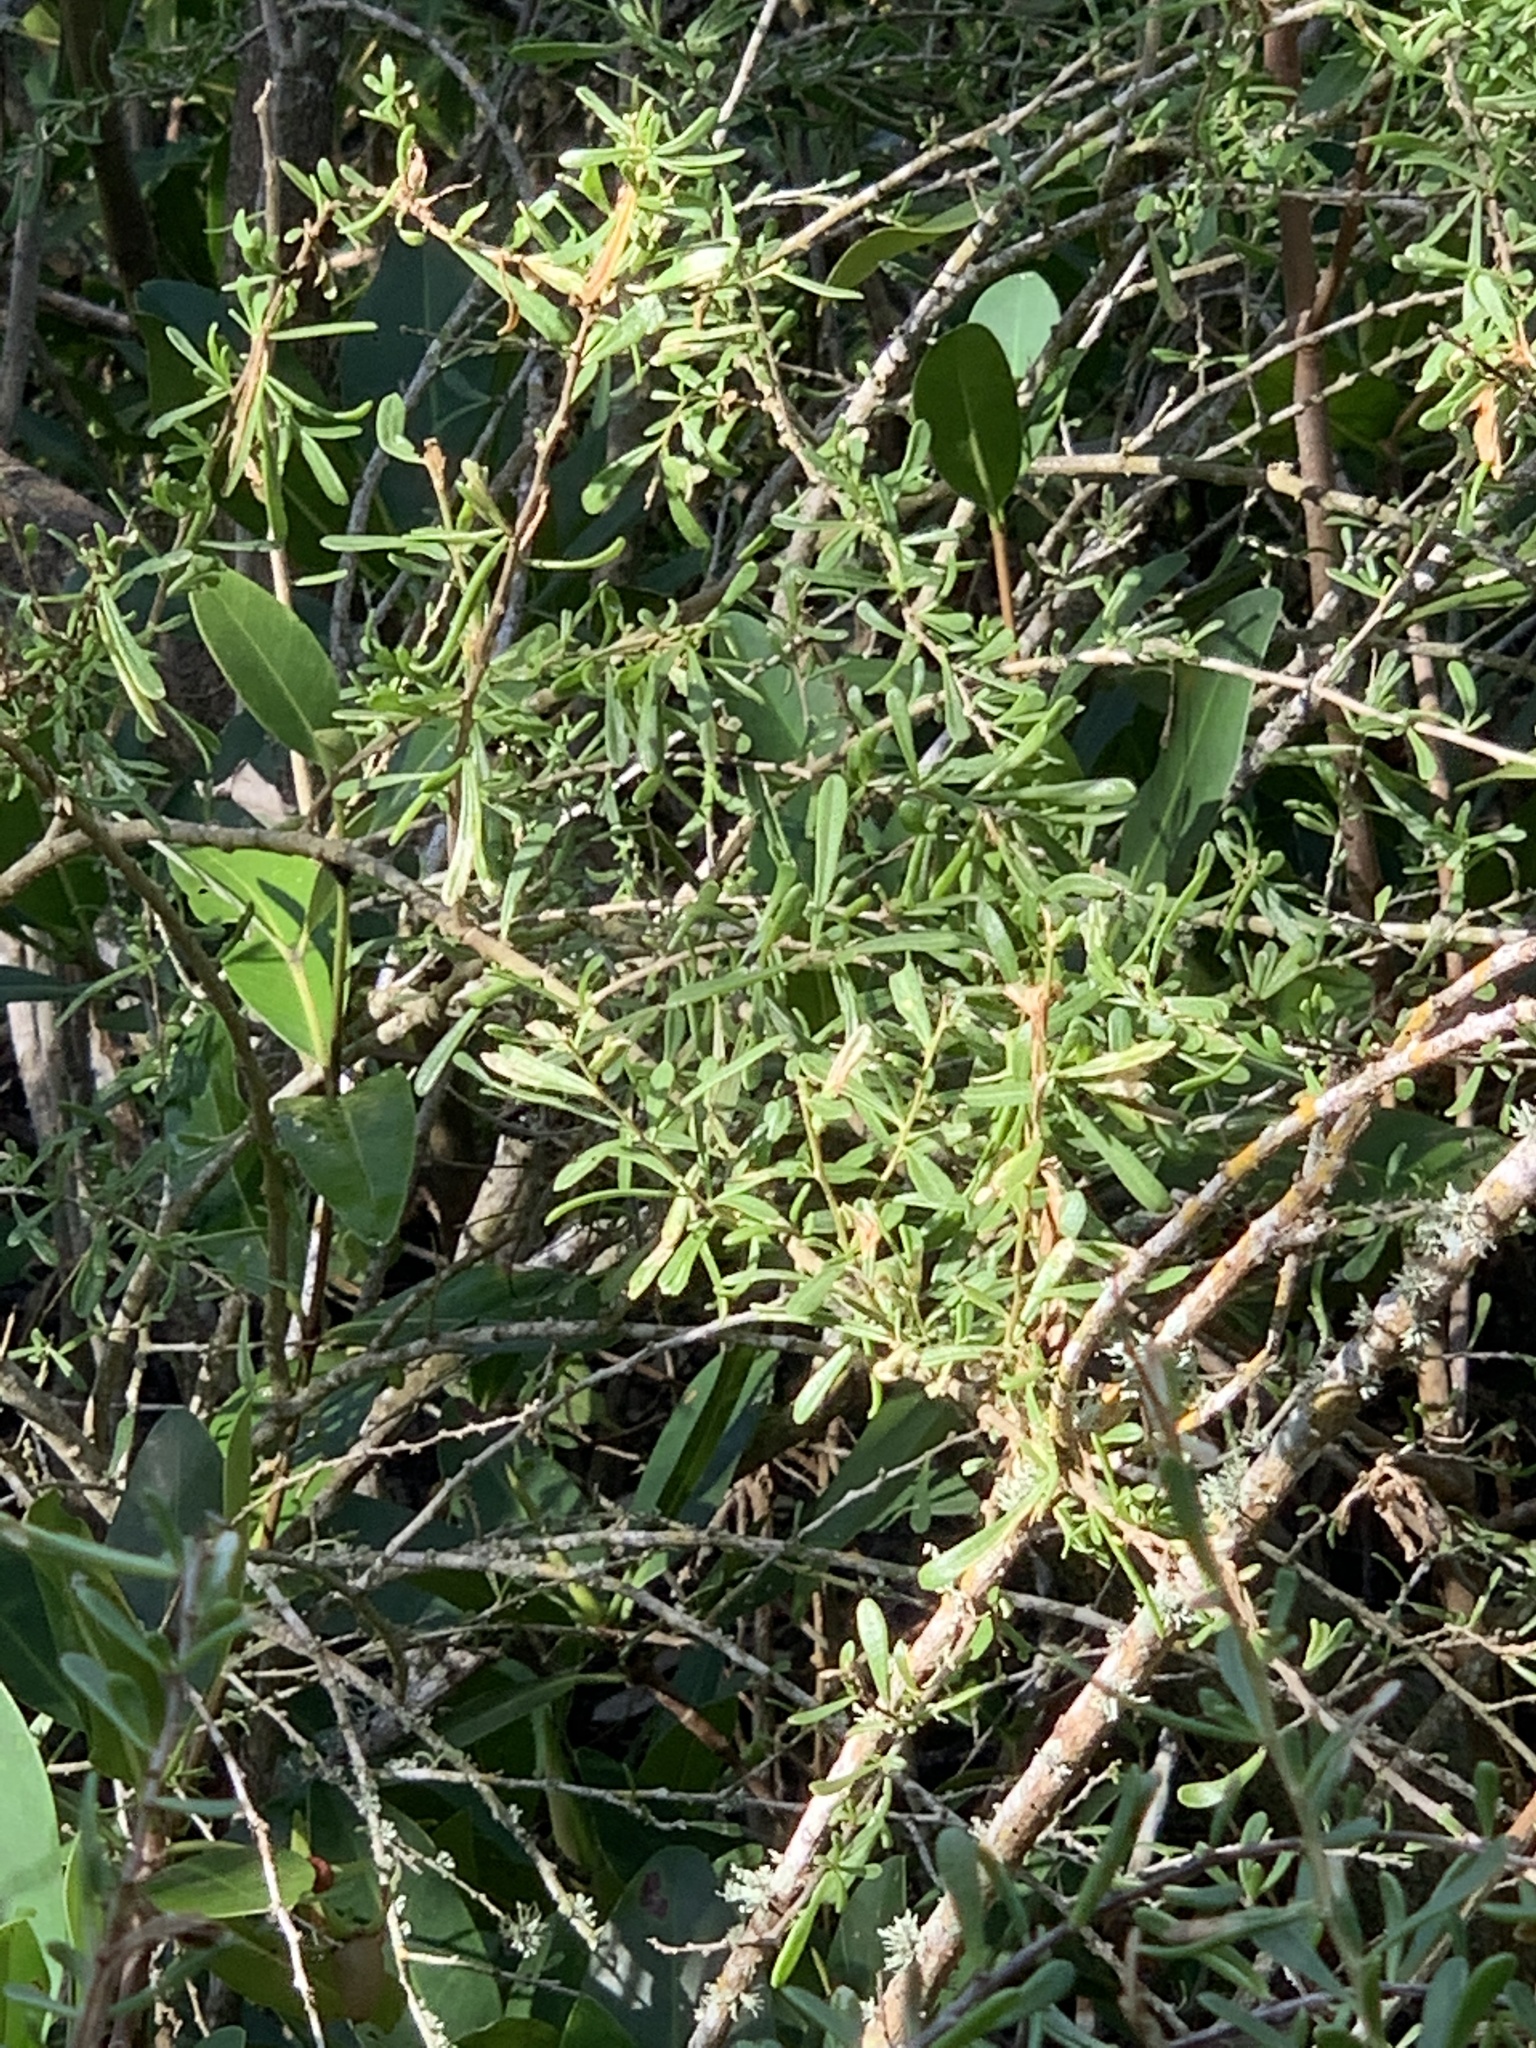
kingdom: Plantae
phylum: Tracheophyta
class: Magnoliopsida
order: Solanales
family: Solanaceae
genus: Lycium
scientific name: Lycium carolinianum
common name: Christmasberry
